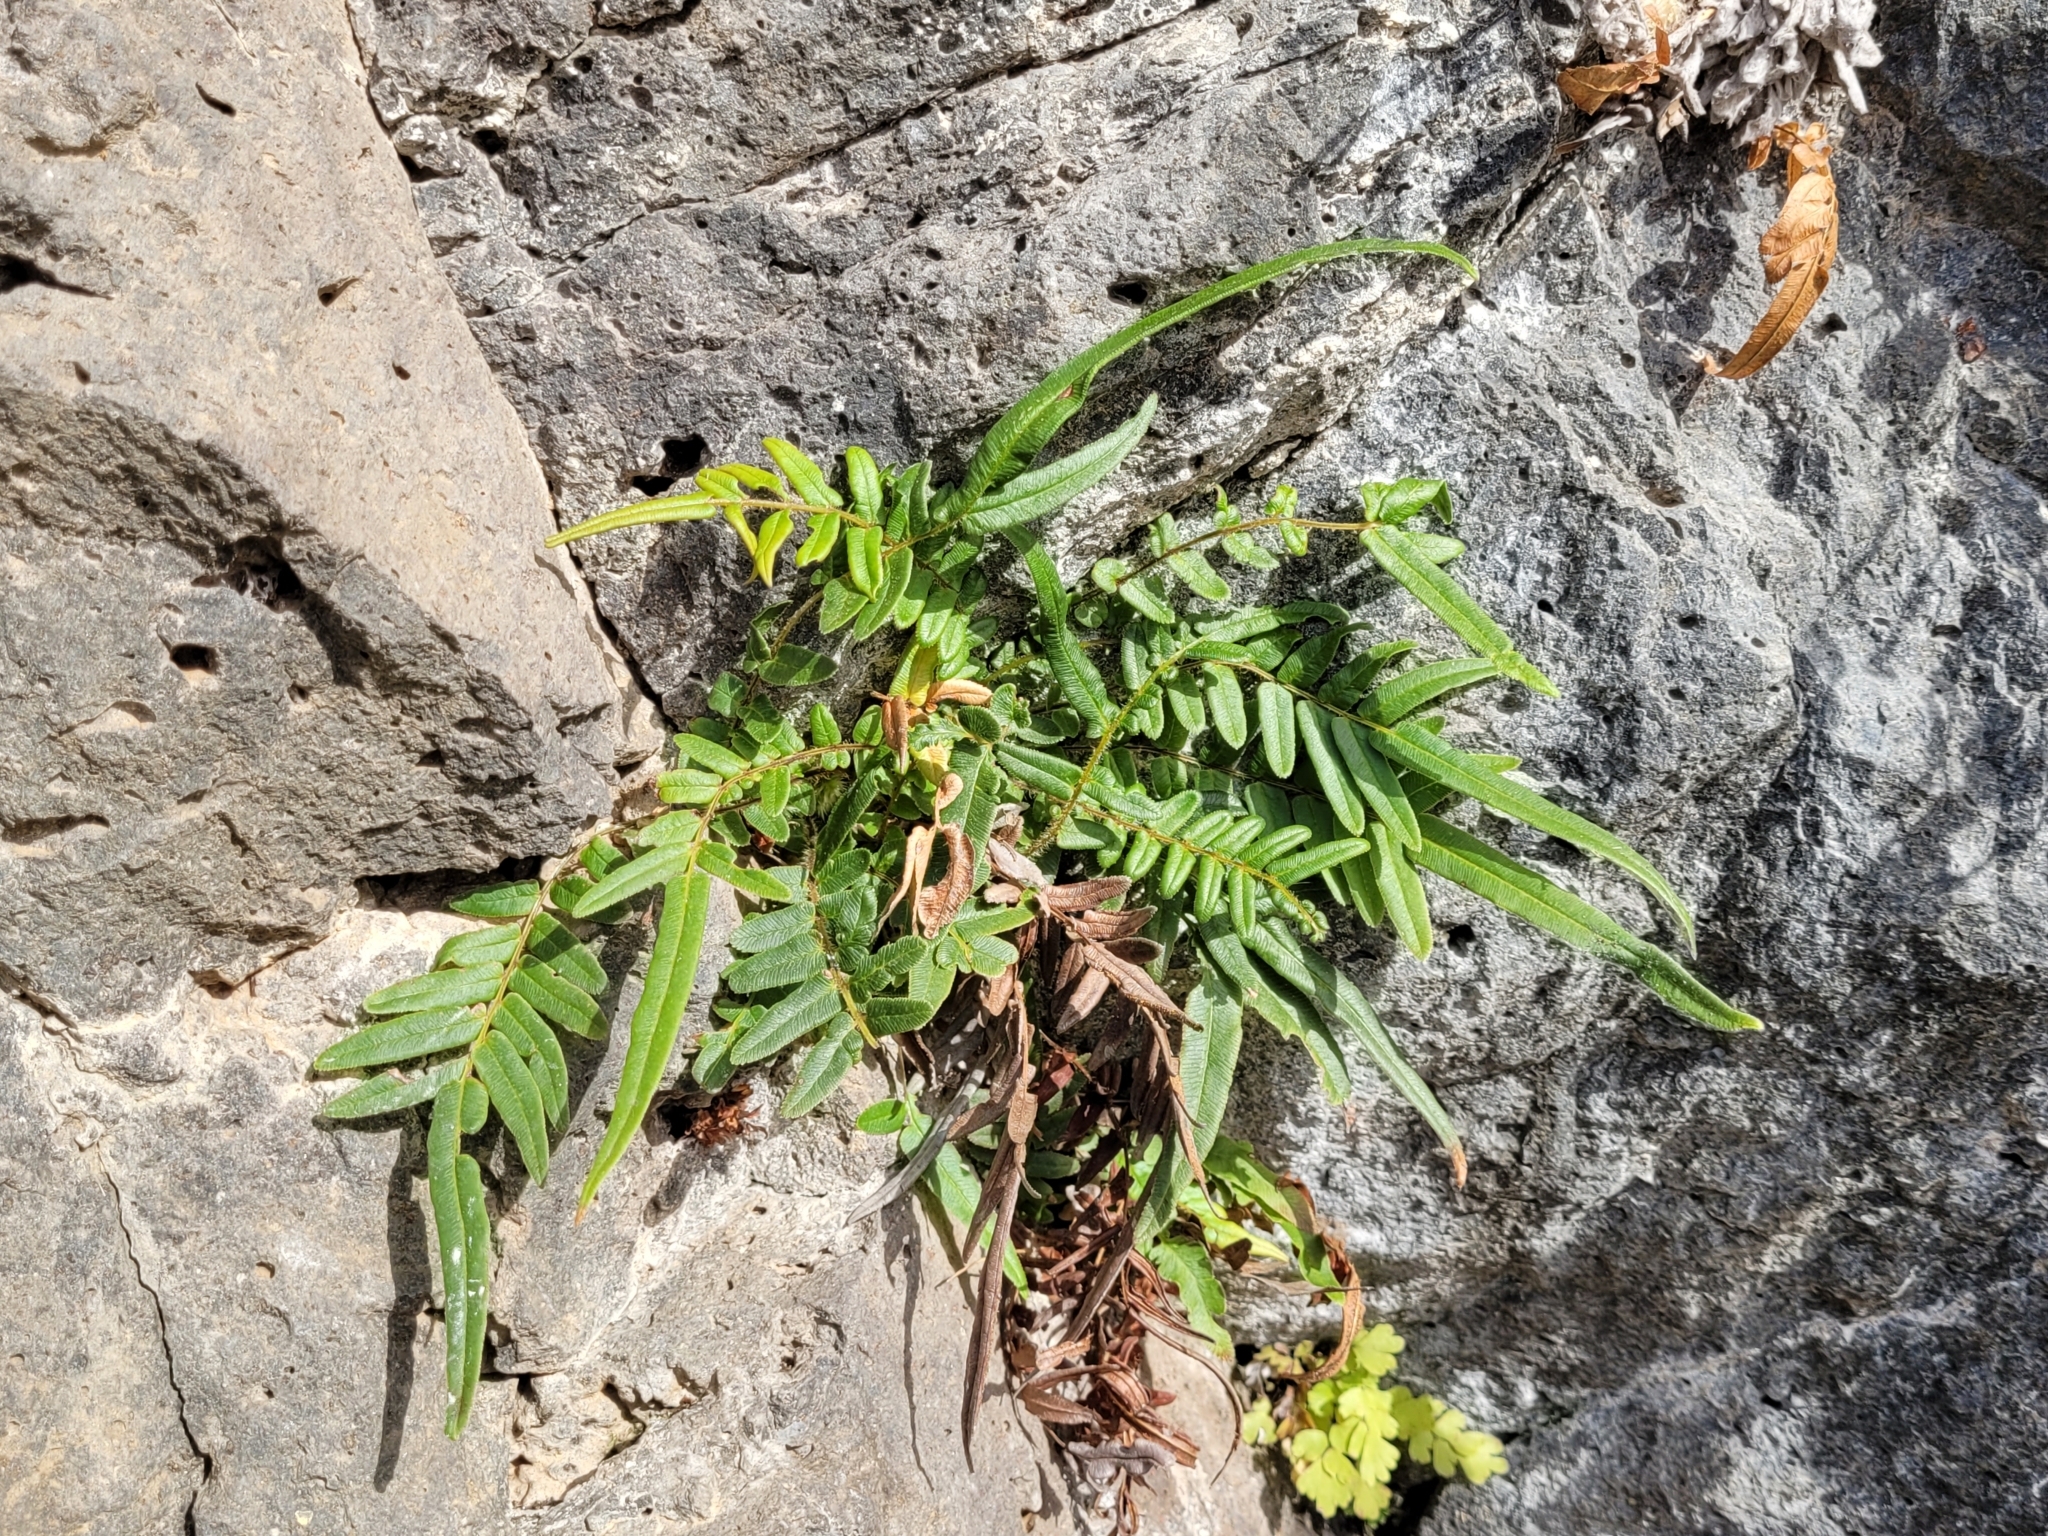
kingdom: Plantae
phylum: Tracheophyta
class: Polypodiopsida
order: Polypodiales
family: Pteridaceae
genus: Pteris
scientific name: Pteris vittata
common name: Ladder brake
